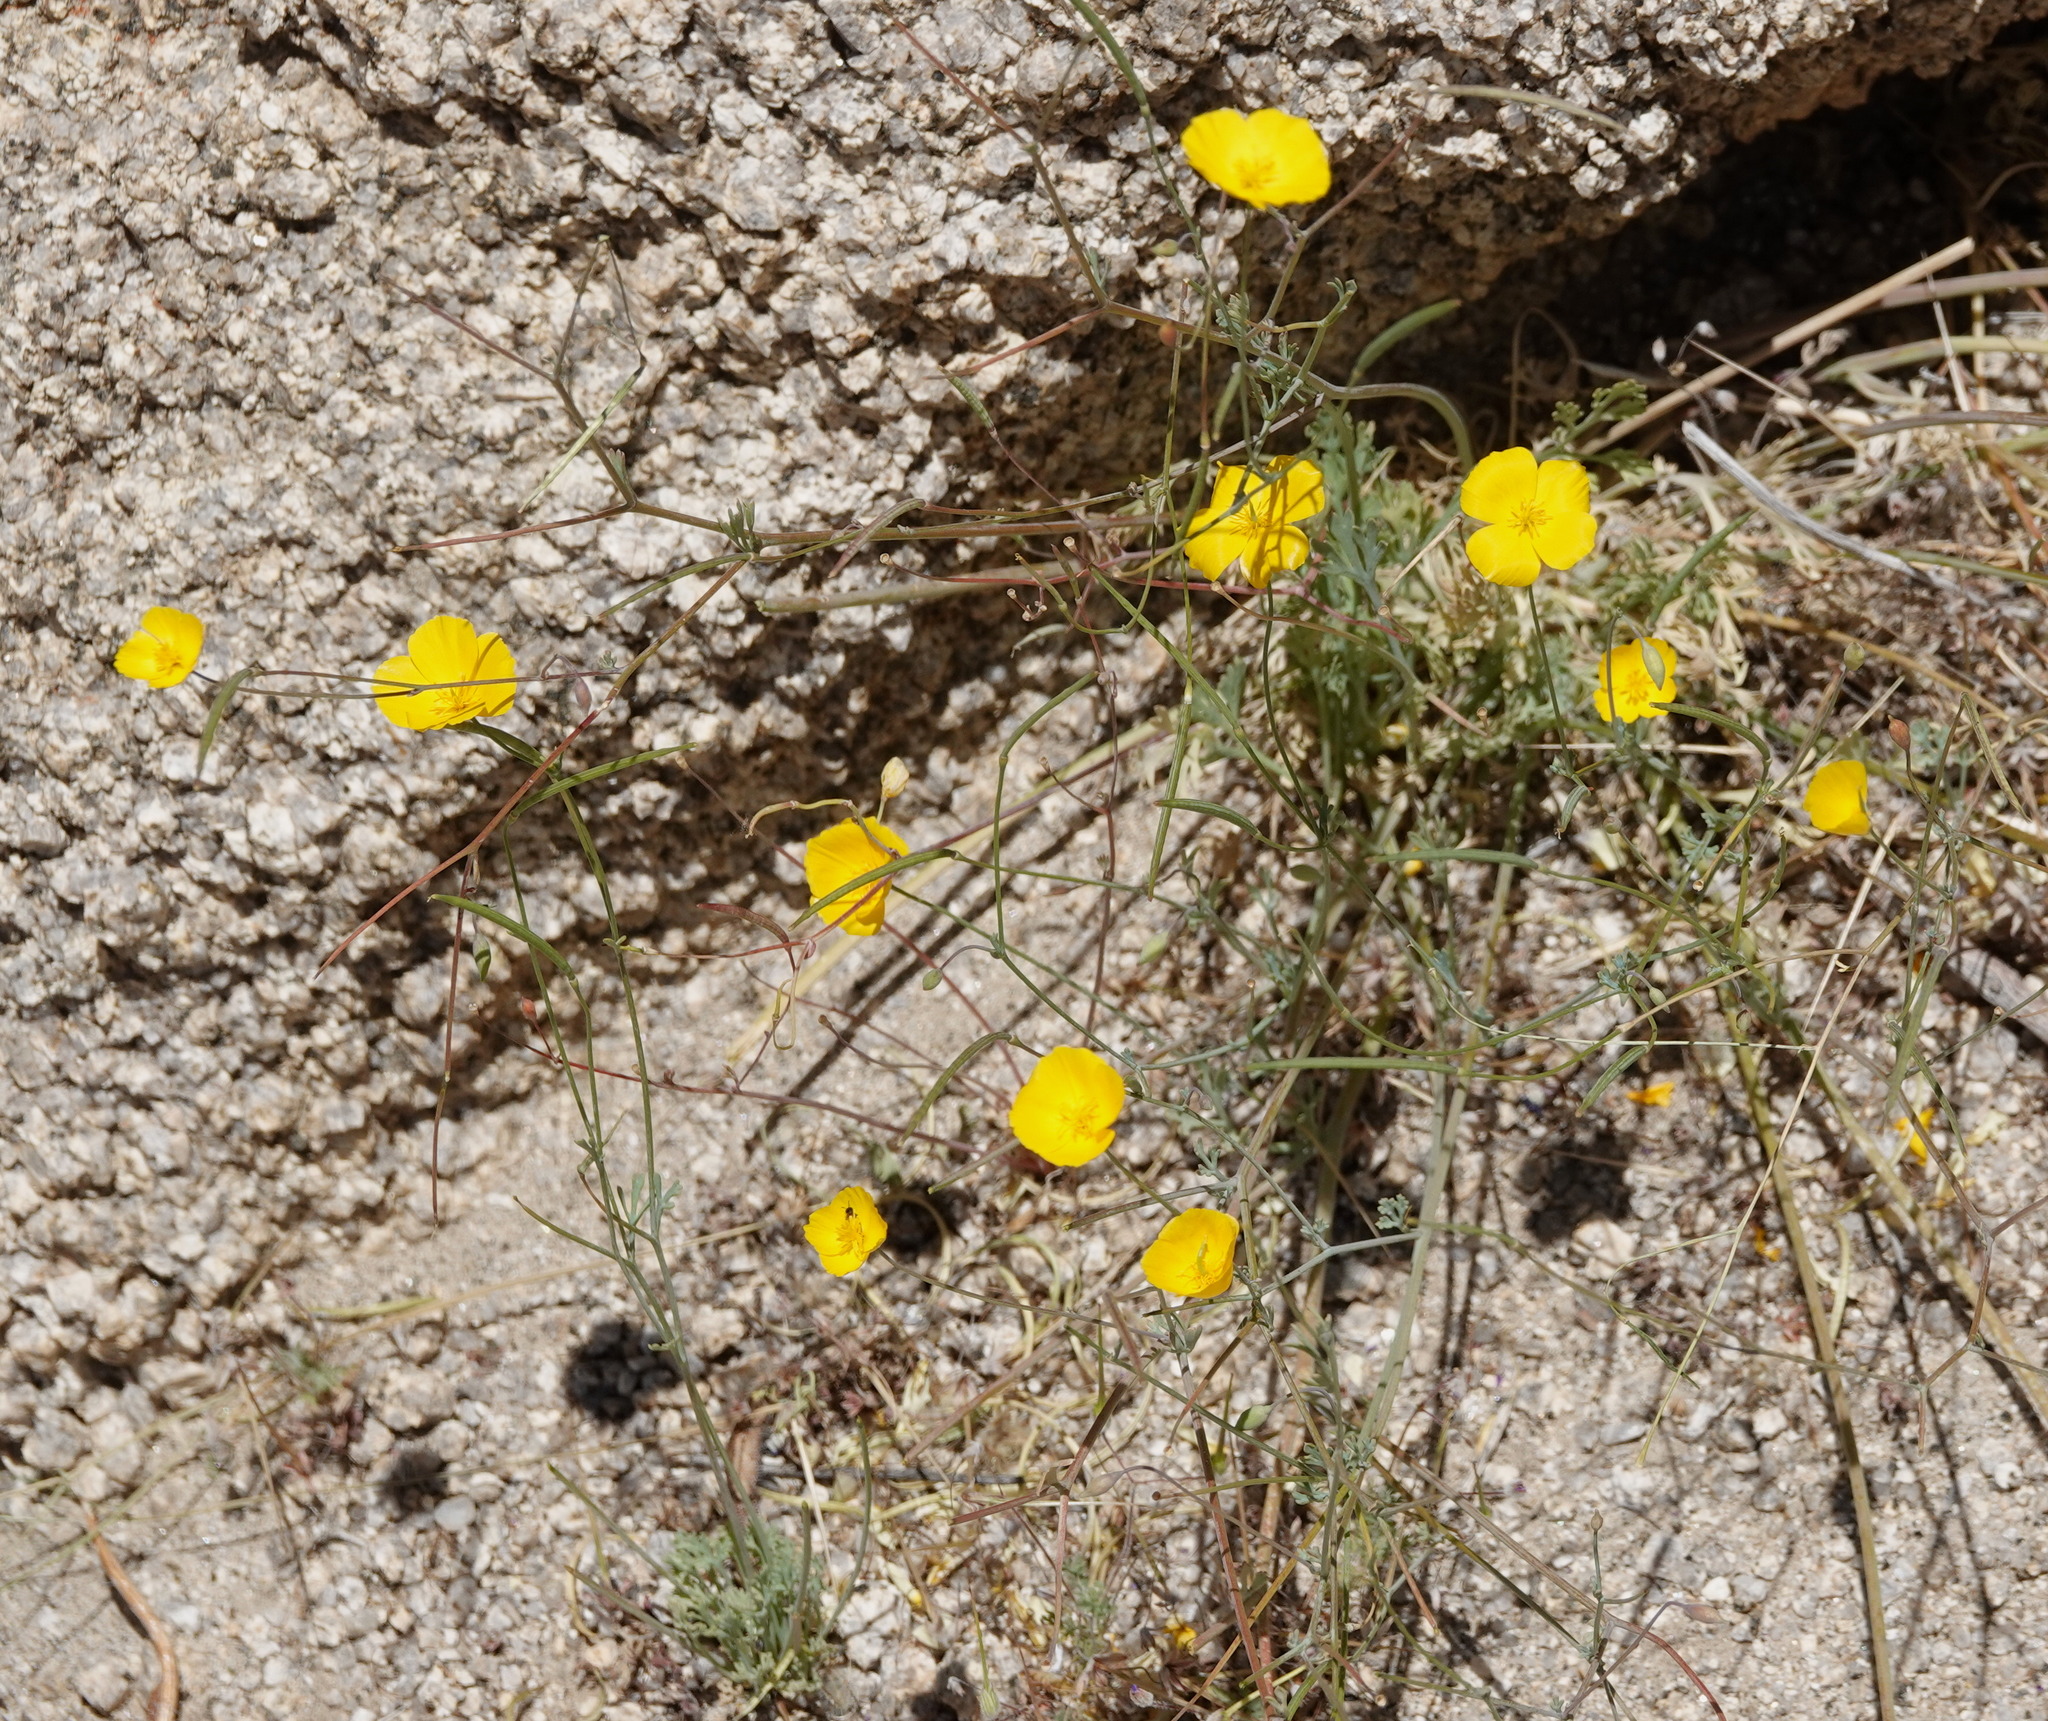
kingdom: Plantae
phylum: Tracheophyta
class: Magnoliopsida
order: Ranunculales
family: Papaveraceae
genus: Eschscholzia
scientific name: Eschscholzia parishii
